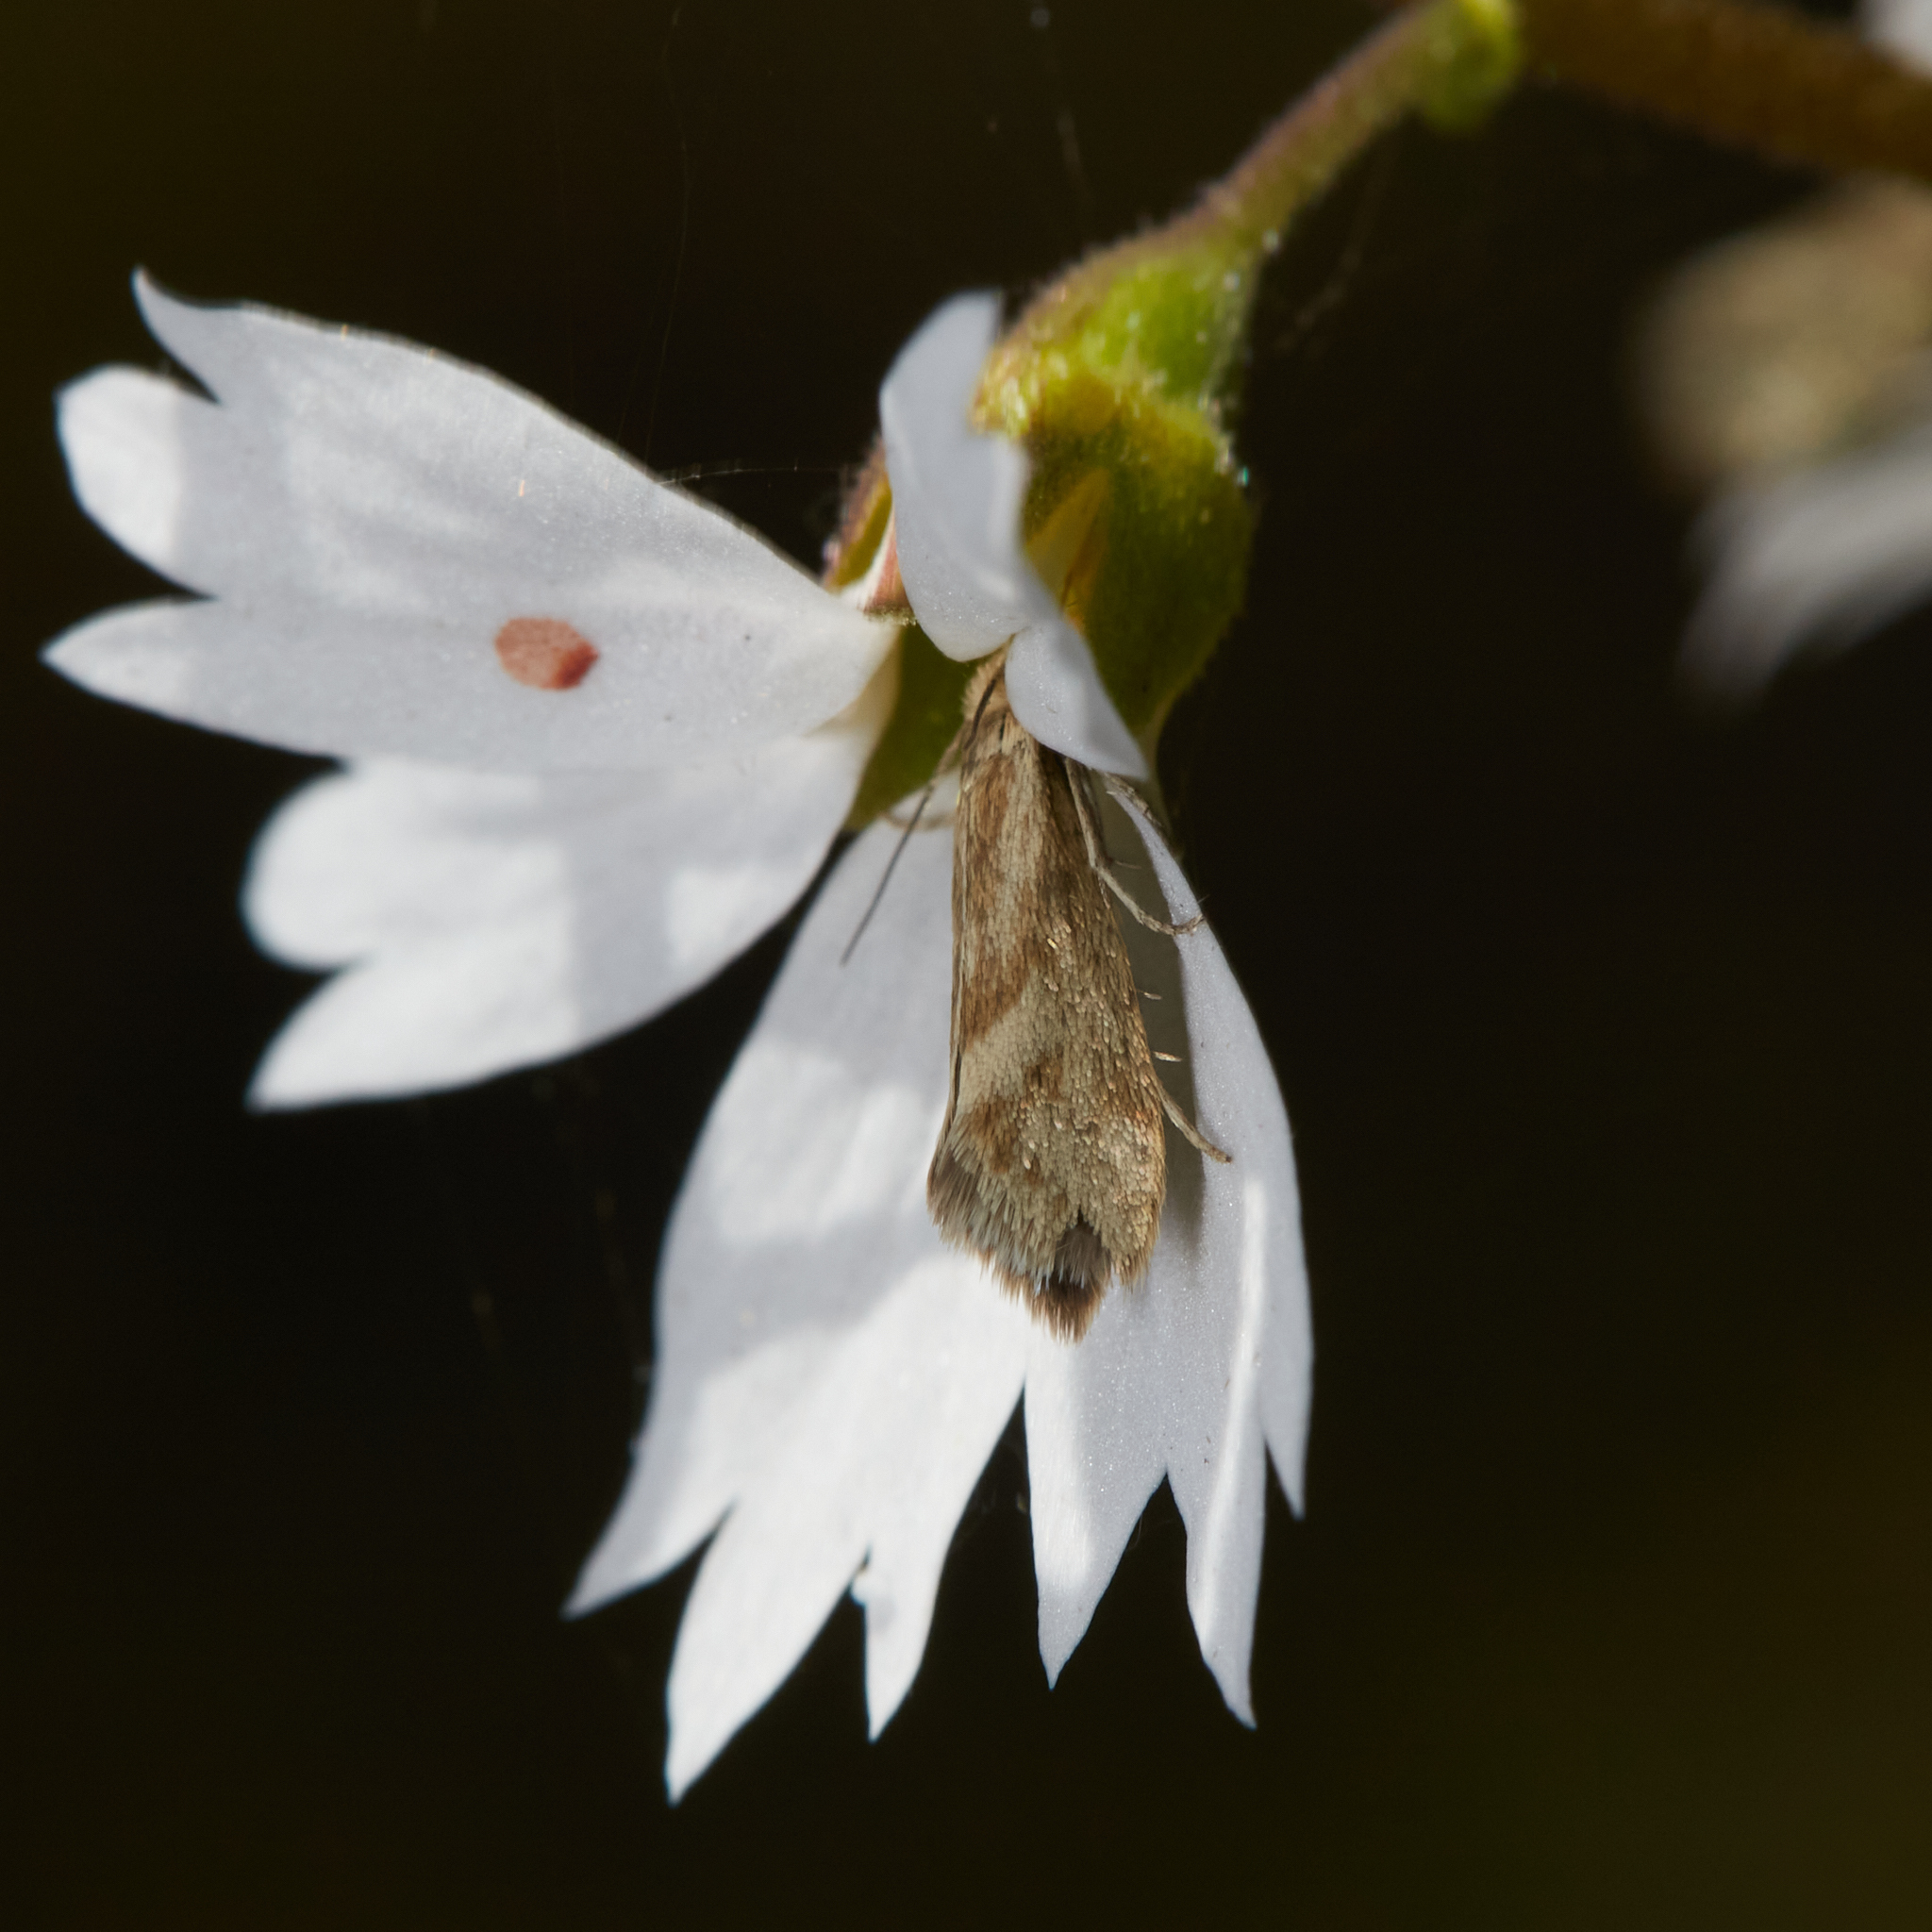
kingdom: Animalia
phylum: Arthropoda
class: Insecta
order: Lepidoptera
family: Prodoxidae
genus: Greya
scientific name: Greya obscura
